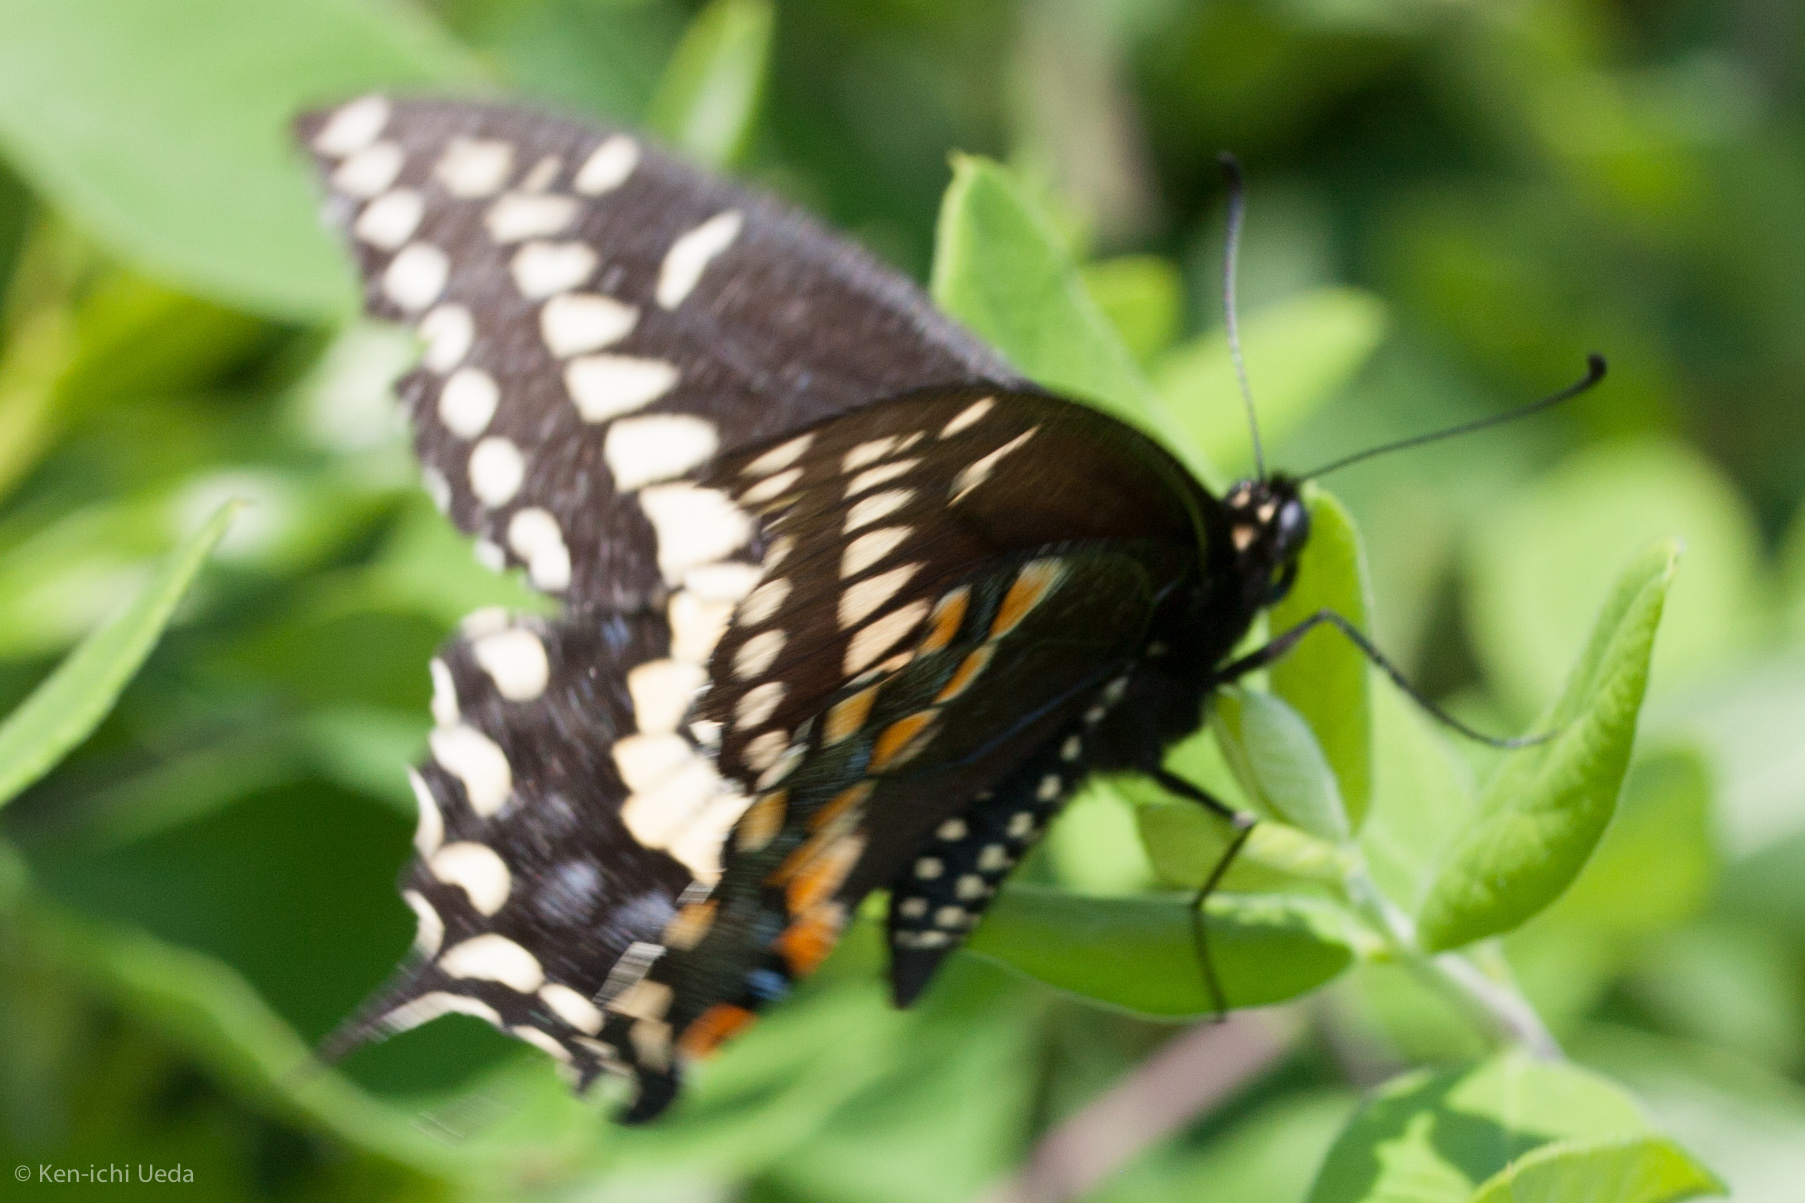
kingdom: Animalia
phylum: Arthropoda
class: Insecta
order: Lepidoptera
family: Papilionidae
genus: Papilio
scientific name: Papilio polyxenes
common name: Black swallowtail
